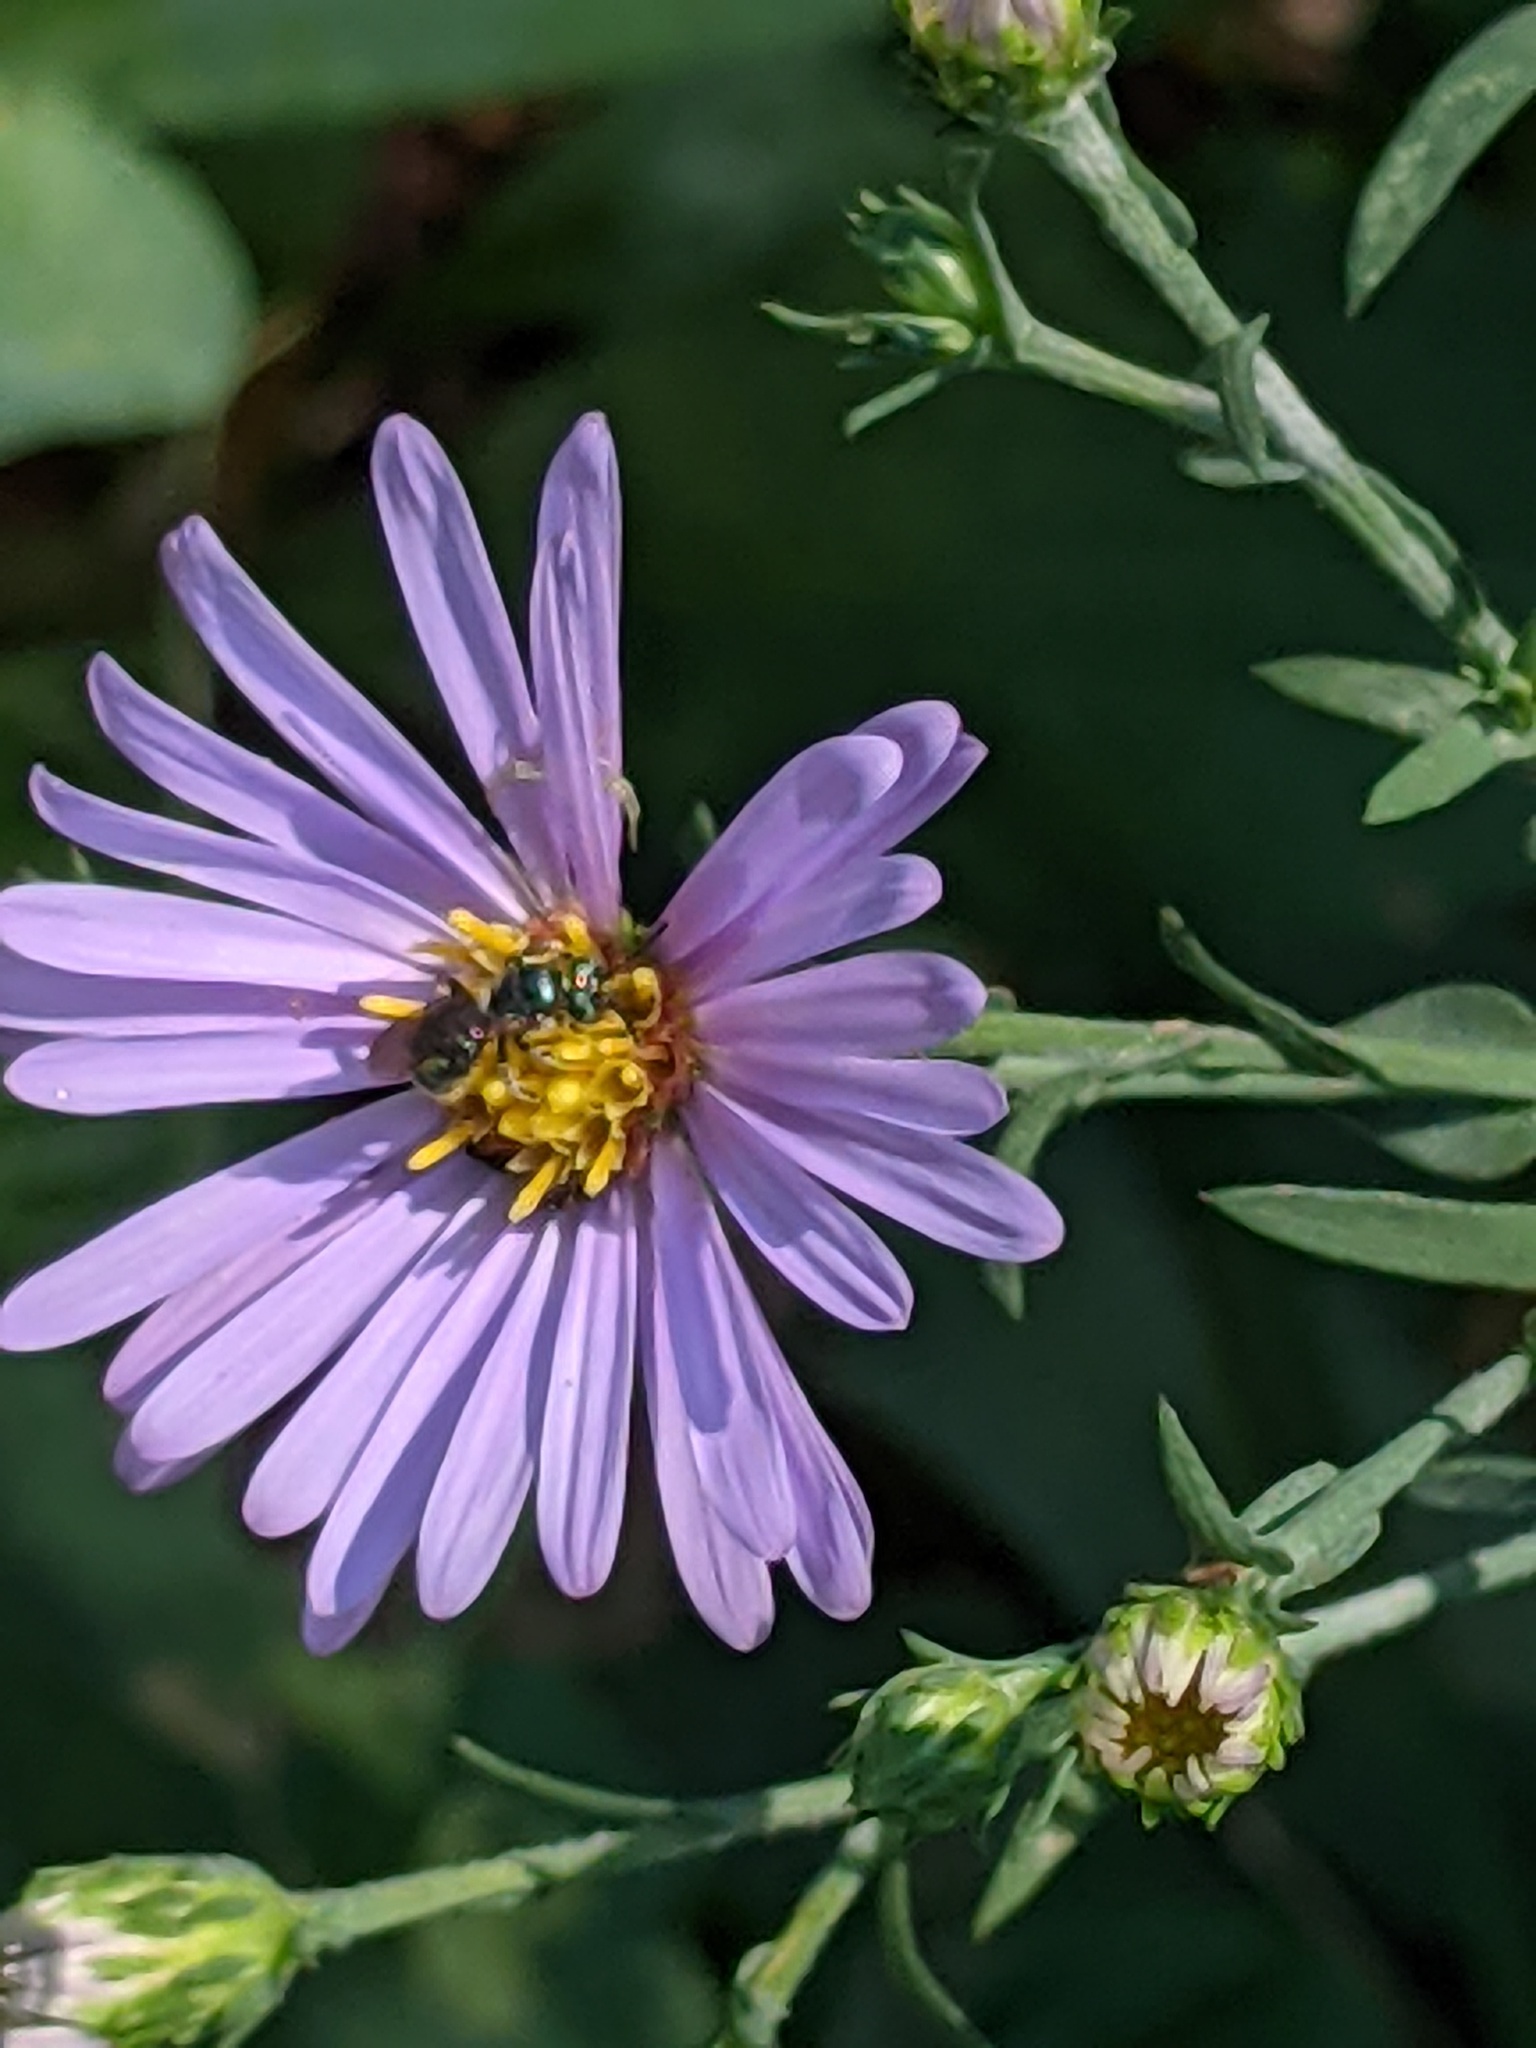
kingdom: Animalia
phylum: Arthropoda
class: Insecta
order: Hymenoptera
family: Apidae
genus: Zadontomerus
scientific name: Zadontomerus
